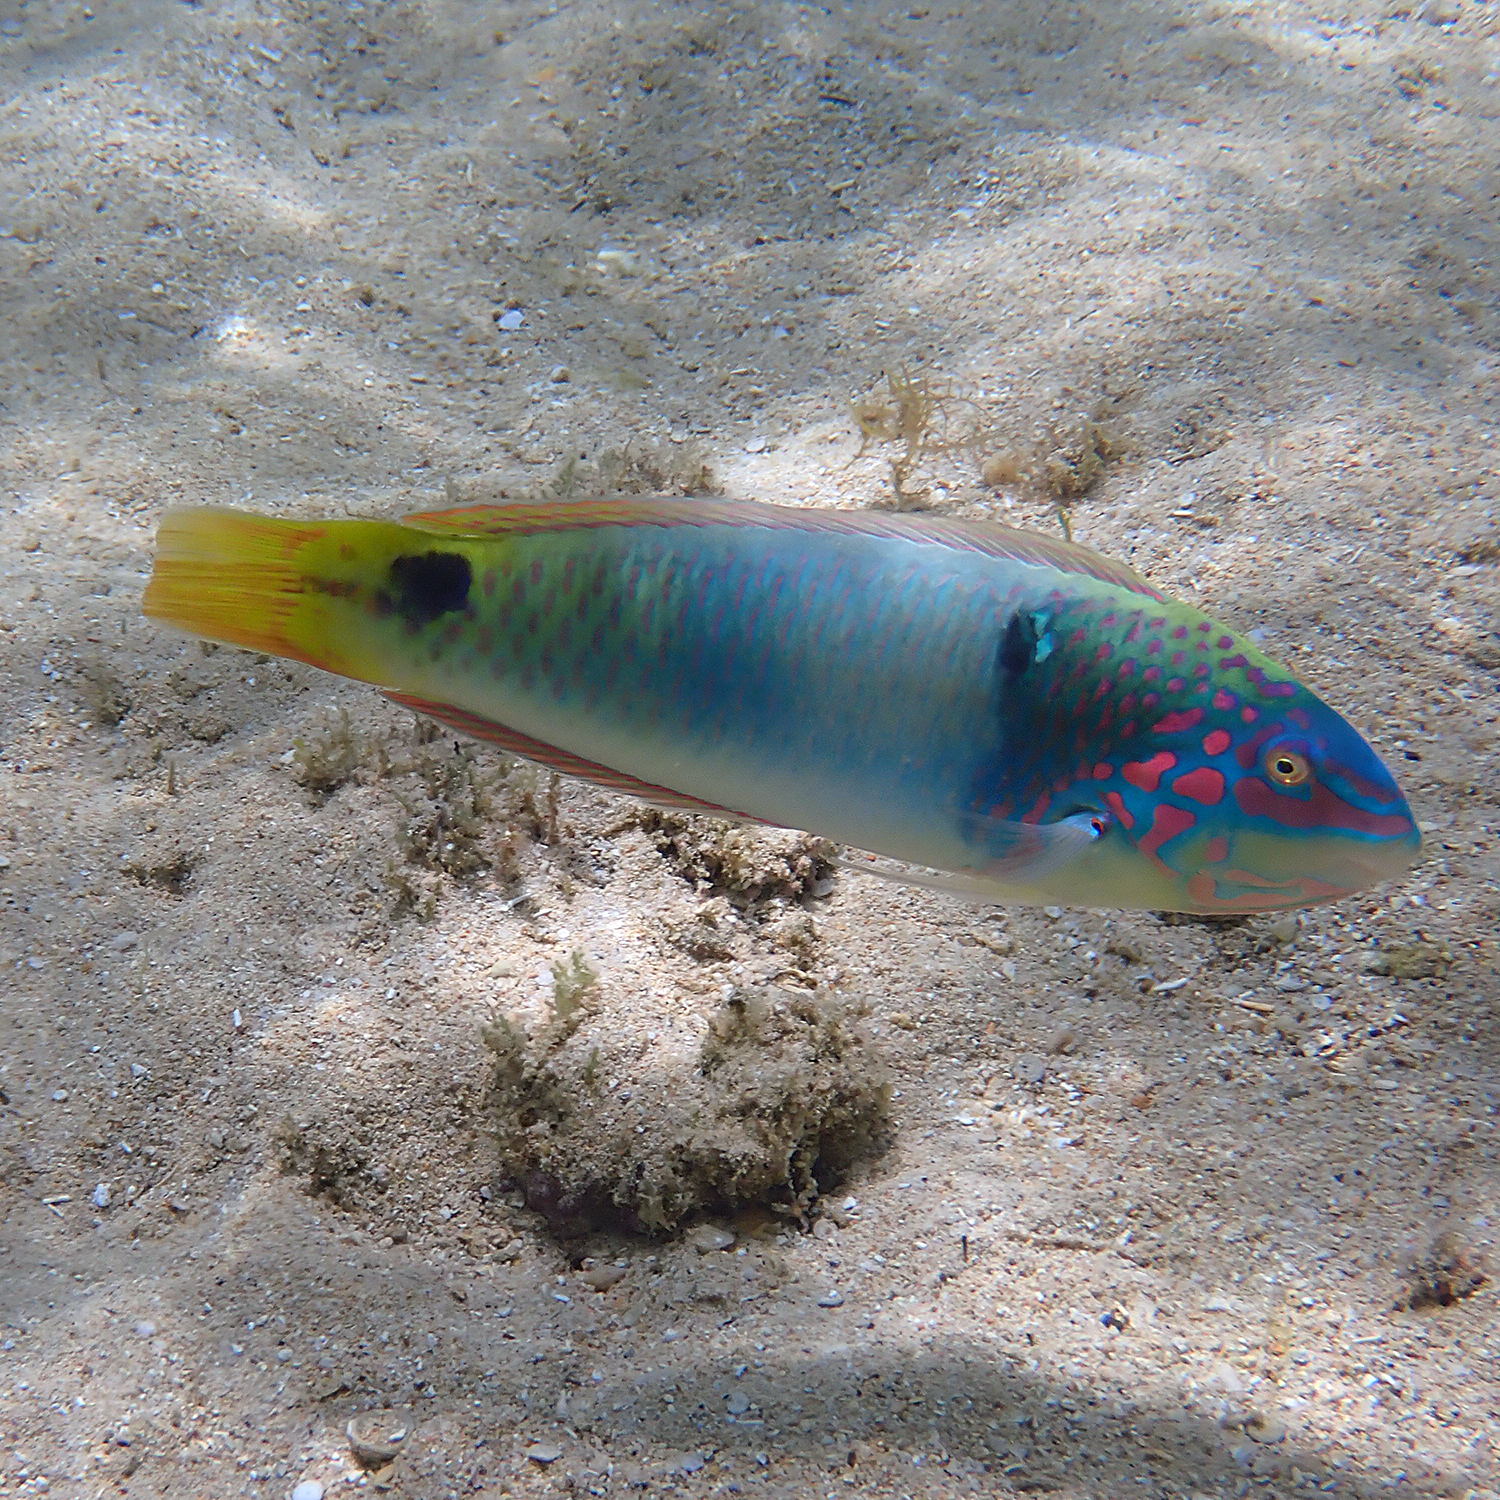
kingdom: Animalia
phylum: Chordata
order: Perciformes
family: Labridae
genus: Halichoeres
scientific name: Halichoeres trimaculatus
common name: Three-spot wrasse
